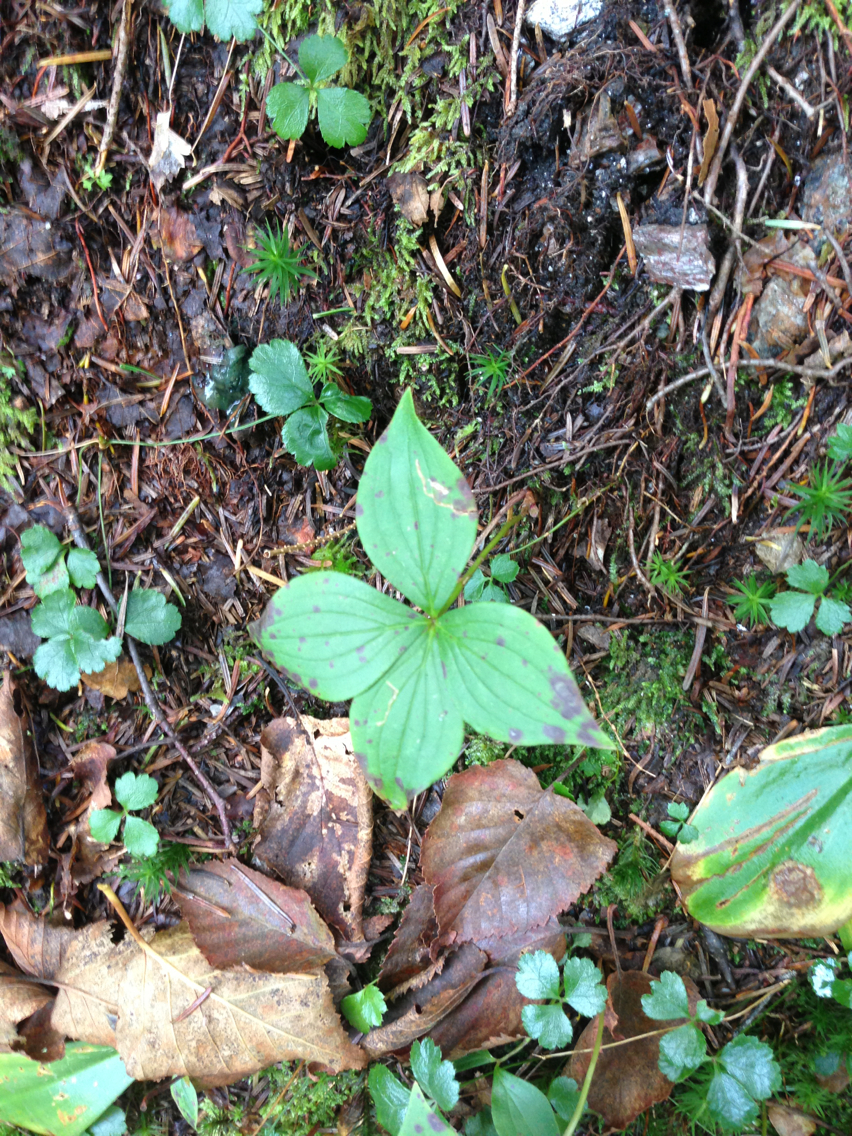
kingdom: Plantae
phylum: Tracheophyta
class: Magnoliopsida
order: Cornales
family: Cornaceae
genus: Cornus
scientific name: Cornus canadensis
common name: Creeping dogwood
